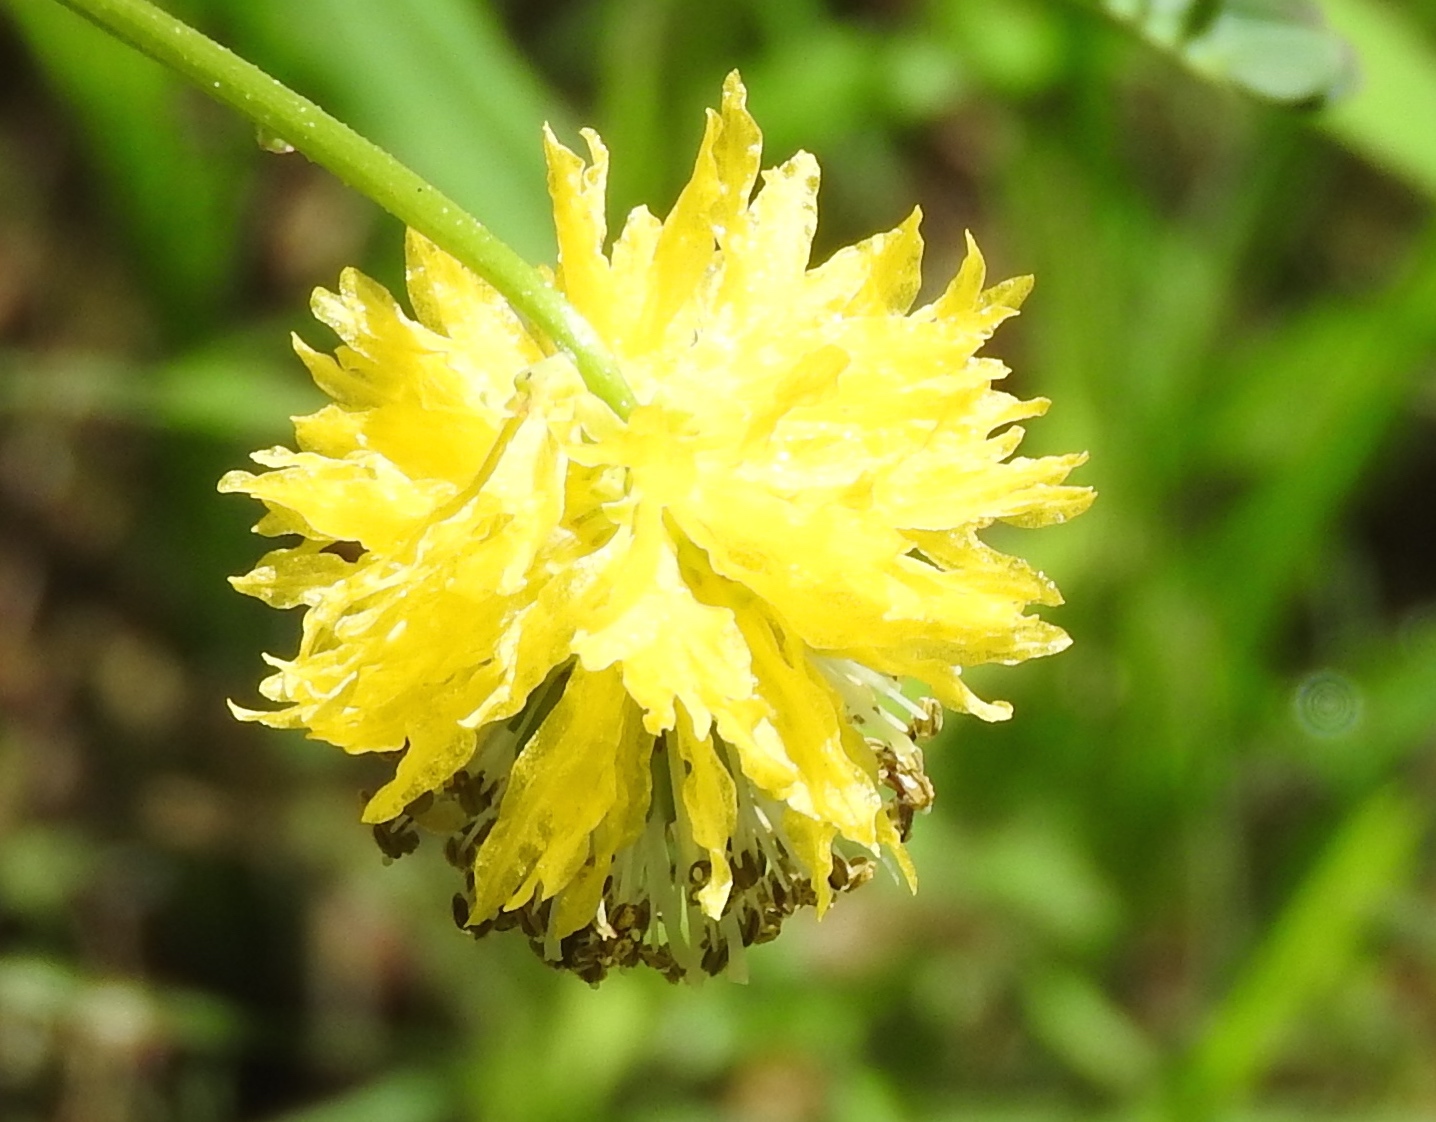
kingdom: Plantae
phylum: Tracheophyta
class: Magnoliopsida
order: Fabales
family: Fabaceae
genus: Neptunia
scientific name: Neptunia
